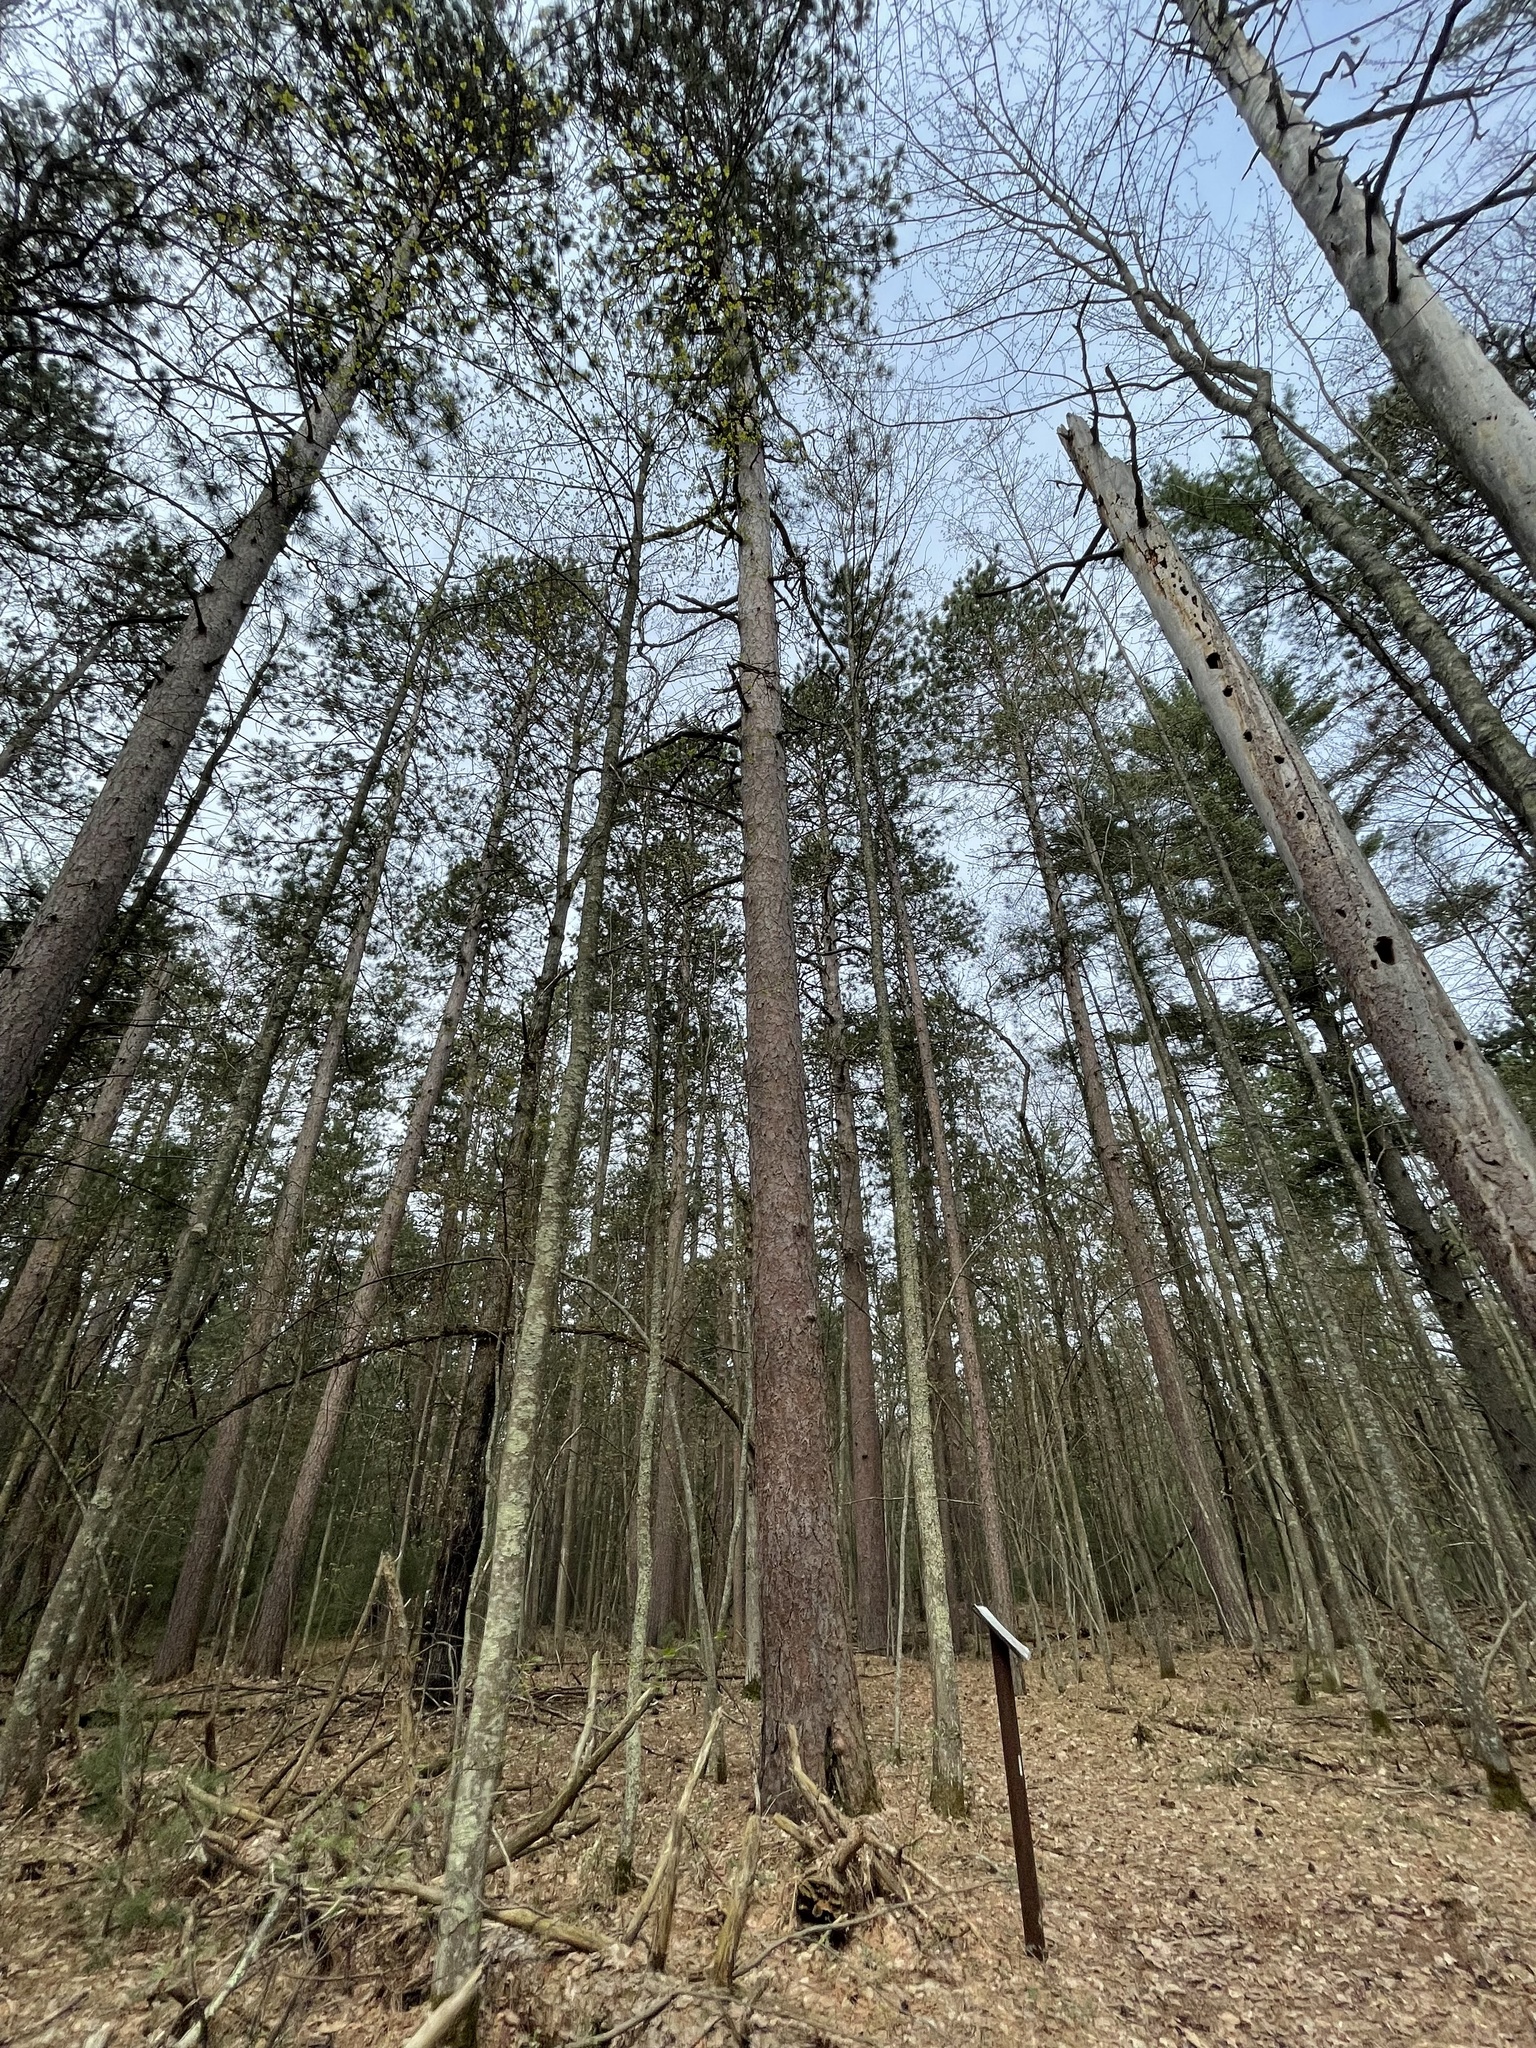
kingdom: Plantae
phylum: Tracheophyta
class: Pinopsida
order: Pinales
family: Pinaceae
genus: Pinus
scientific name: Pinus resinosa
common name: Norway pine
